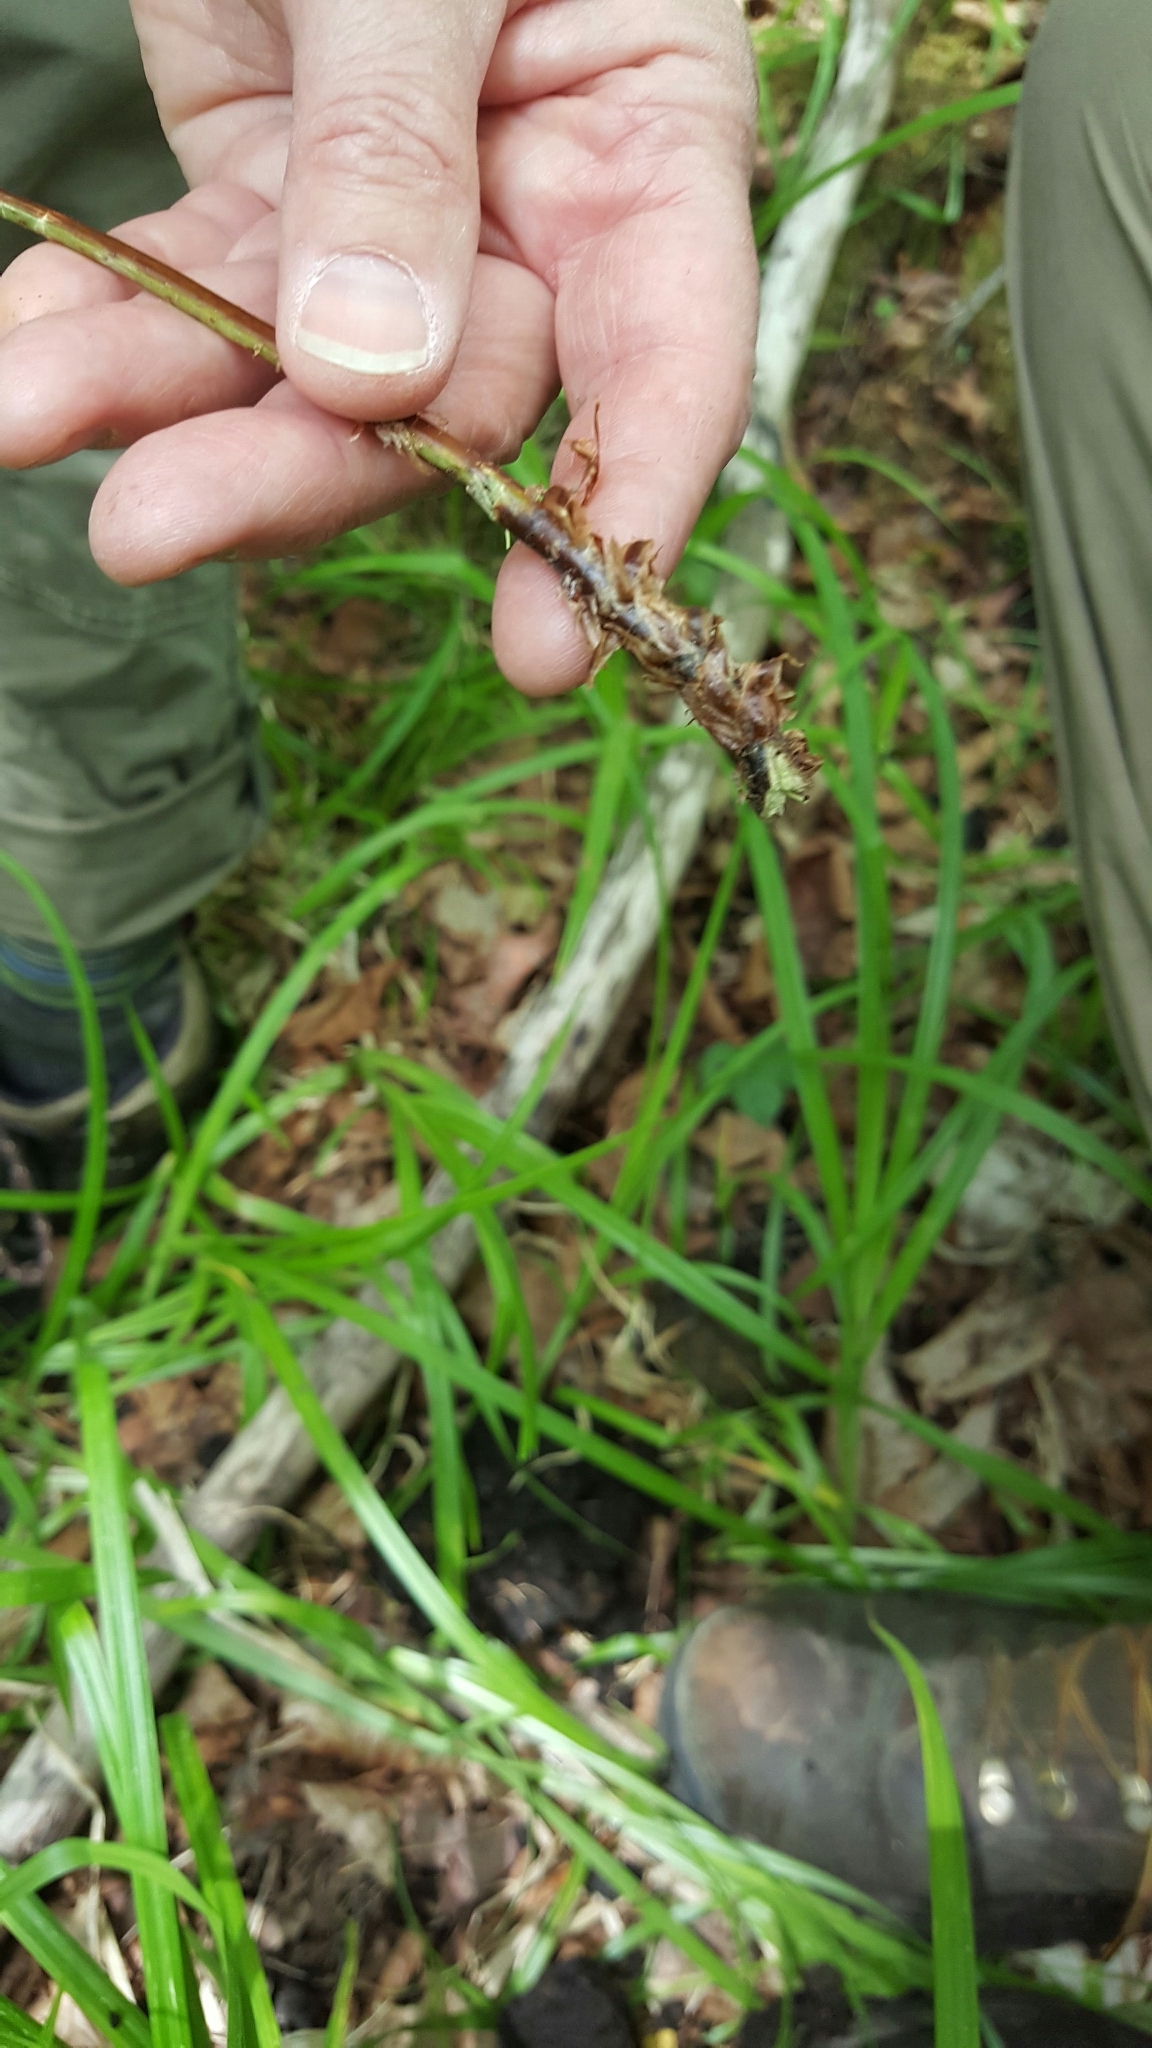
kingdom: Plantae
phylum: Tracheophyta
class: Polypodiopsida
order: Polypodiales
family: Dryopteridaceae
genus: Dryopteris
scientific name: Dryopteris clintoniana
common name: Clinton's wood fern
